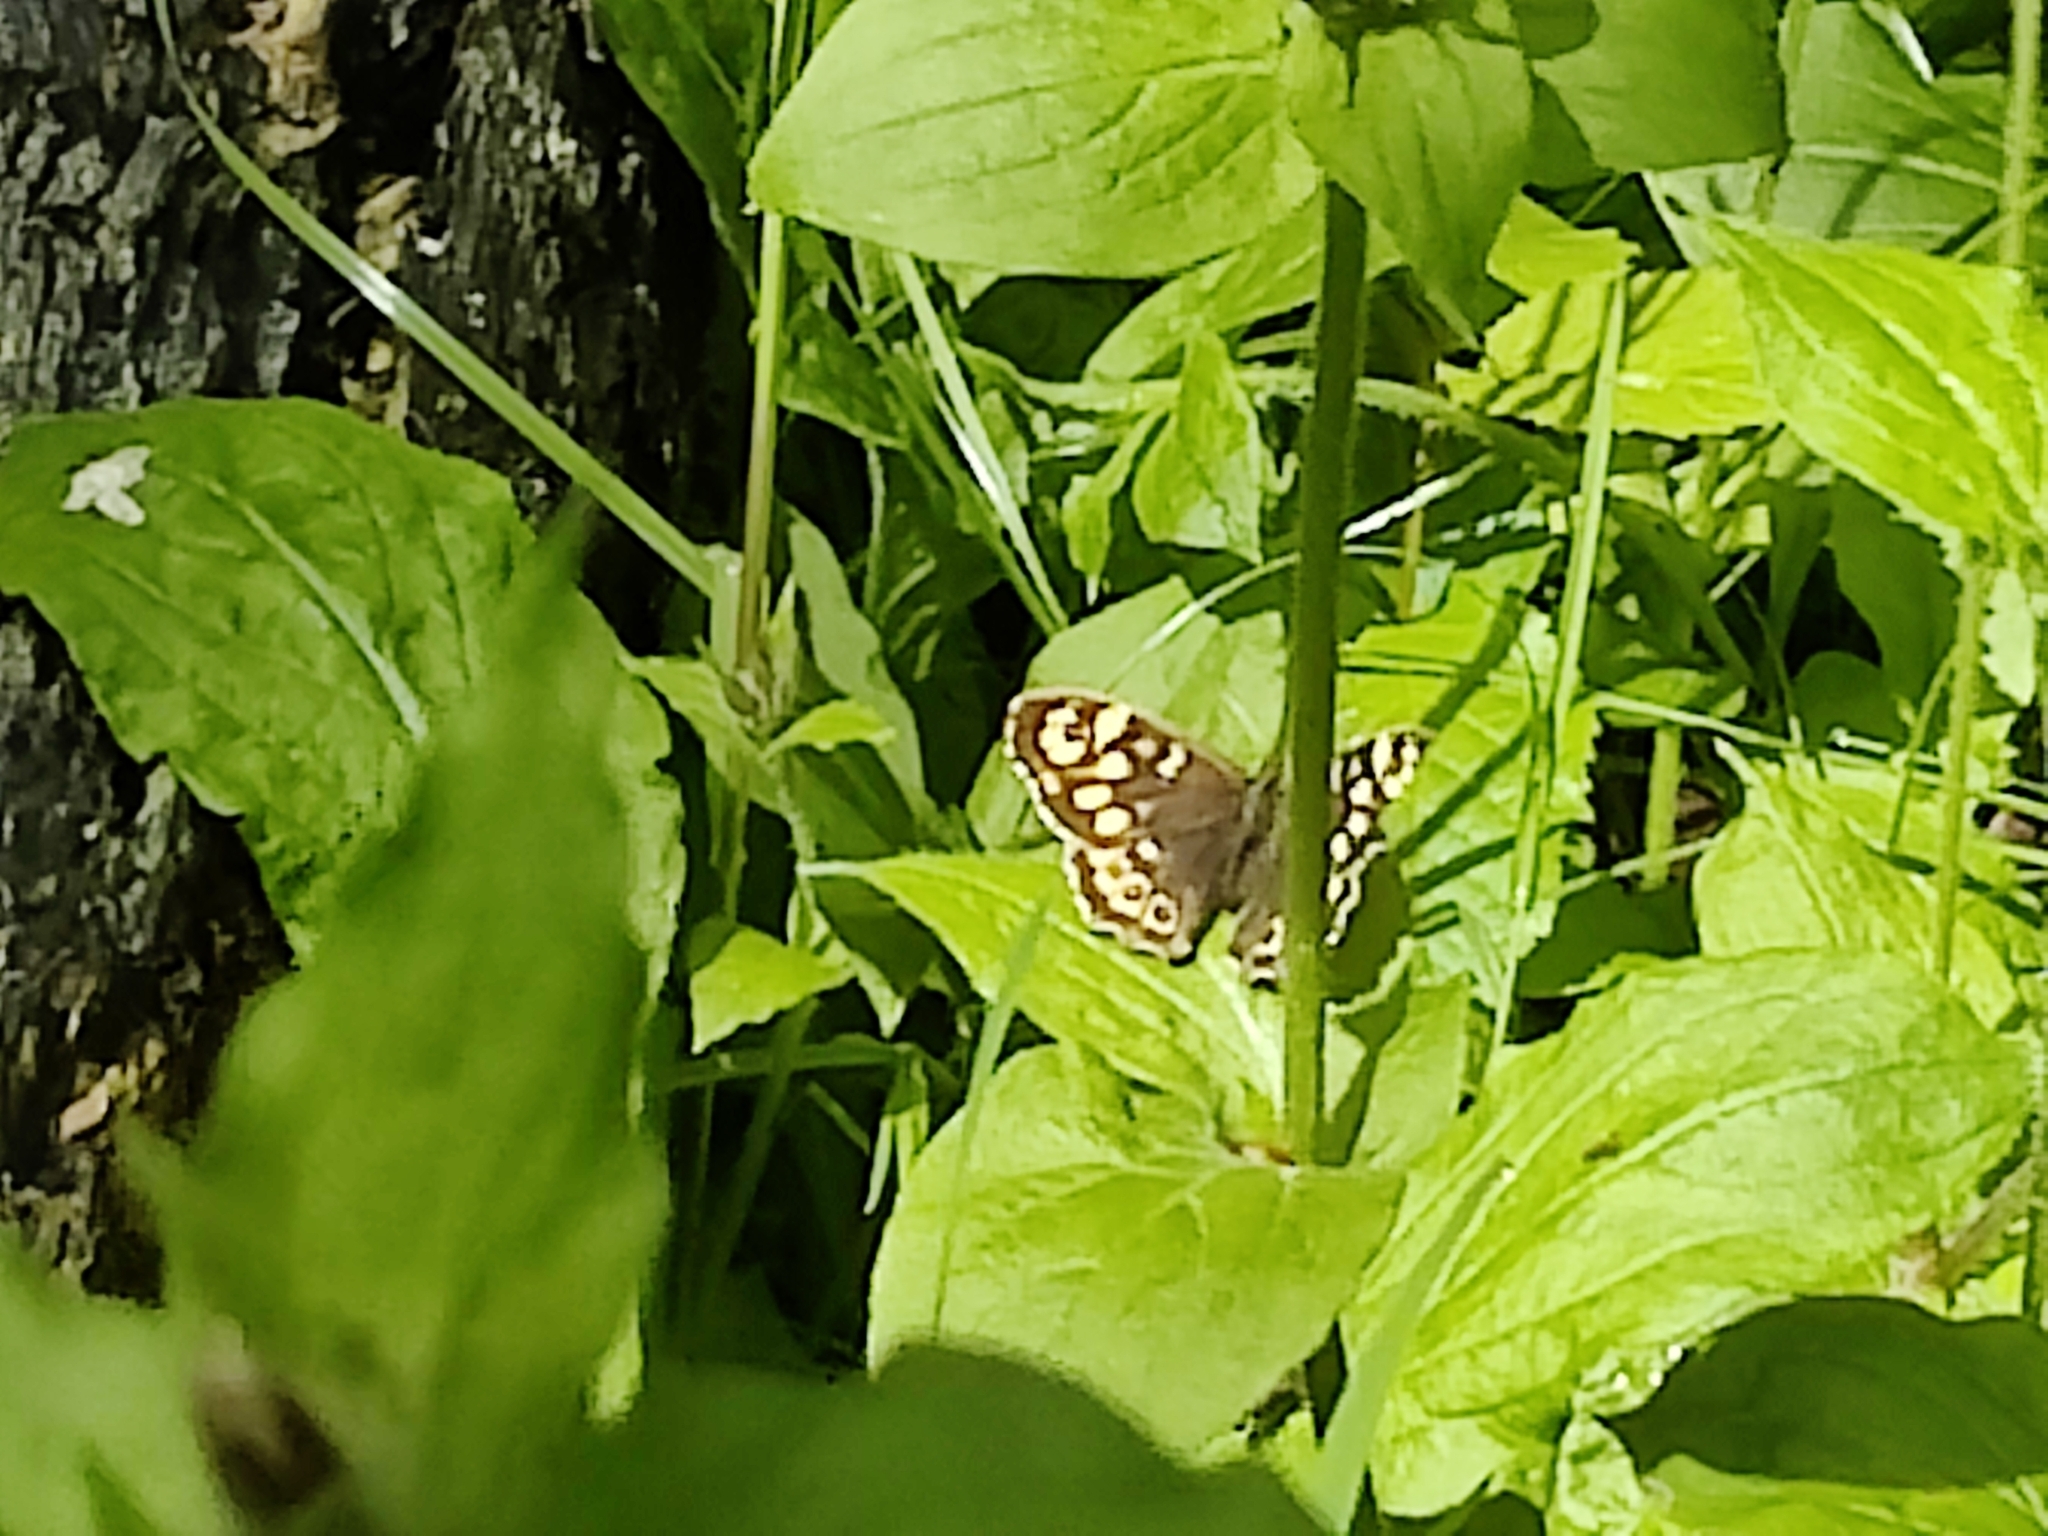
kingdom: Animalia
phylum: Arthropoda
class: Insecta
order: Lepidoptera
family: Nymphalidae
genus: Pararge
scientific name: Pararge aegeria
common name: Speckled wood
